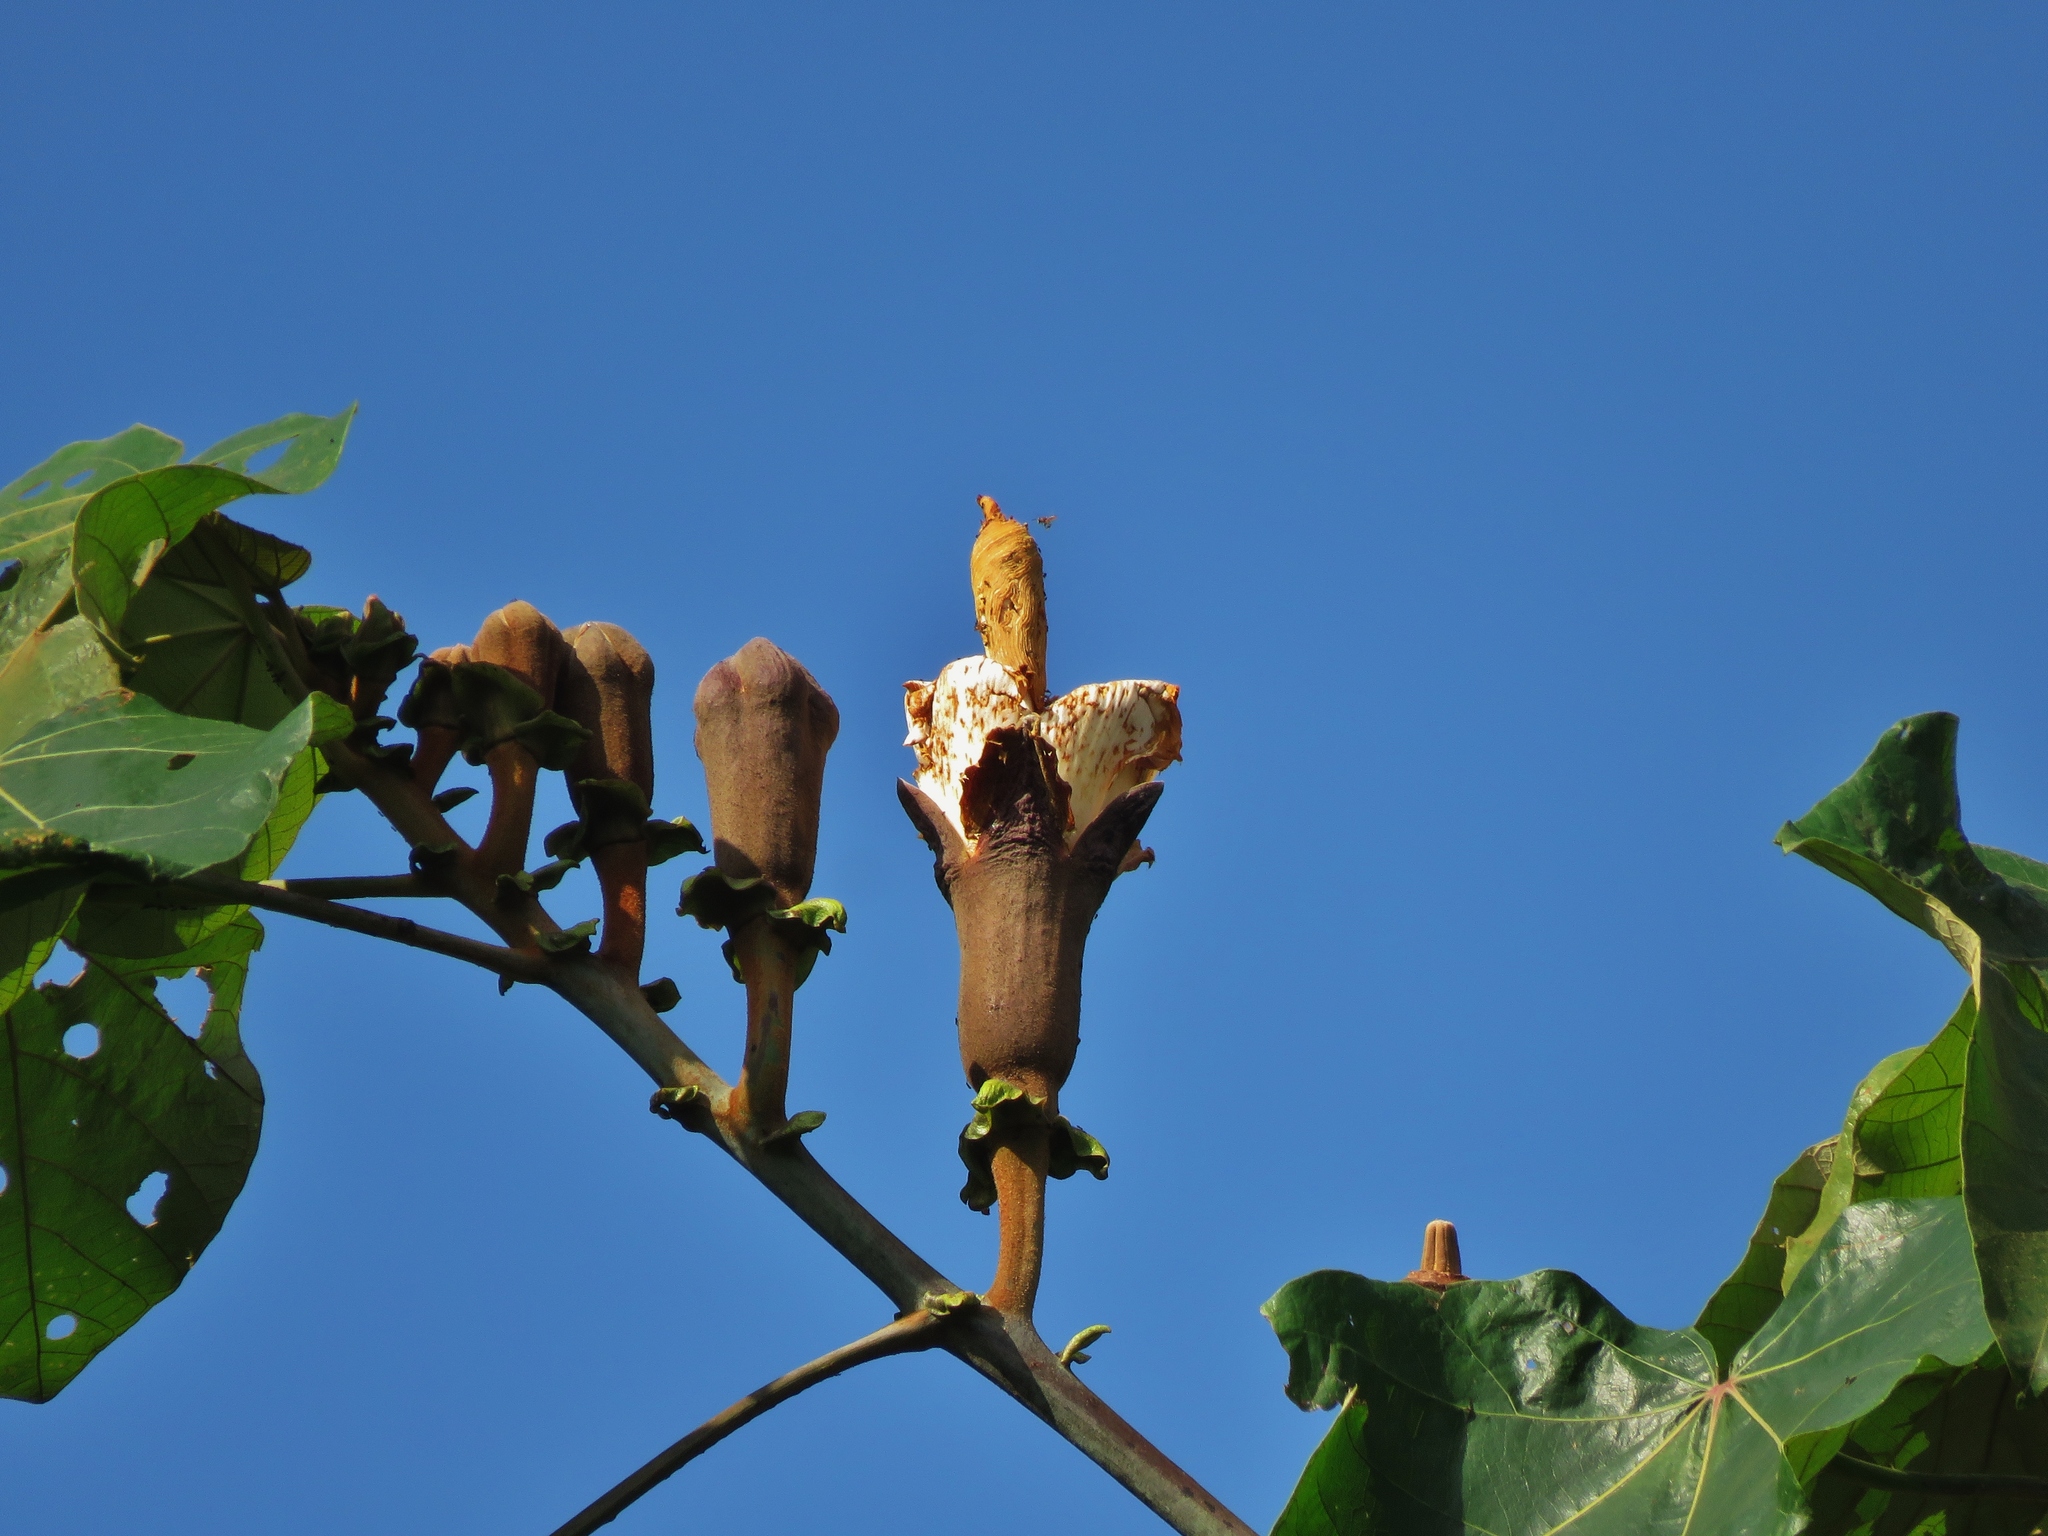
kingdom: Plantae
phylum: Tracheophyta
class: Magnoliopsida
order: Malvales
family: Malvaceae
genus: Ochroma
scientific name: Ochroma pyramidale
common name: Balsa
